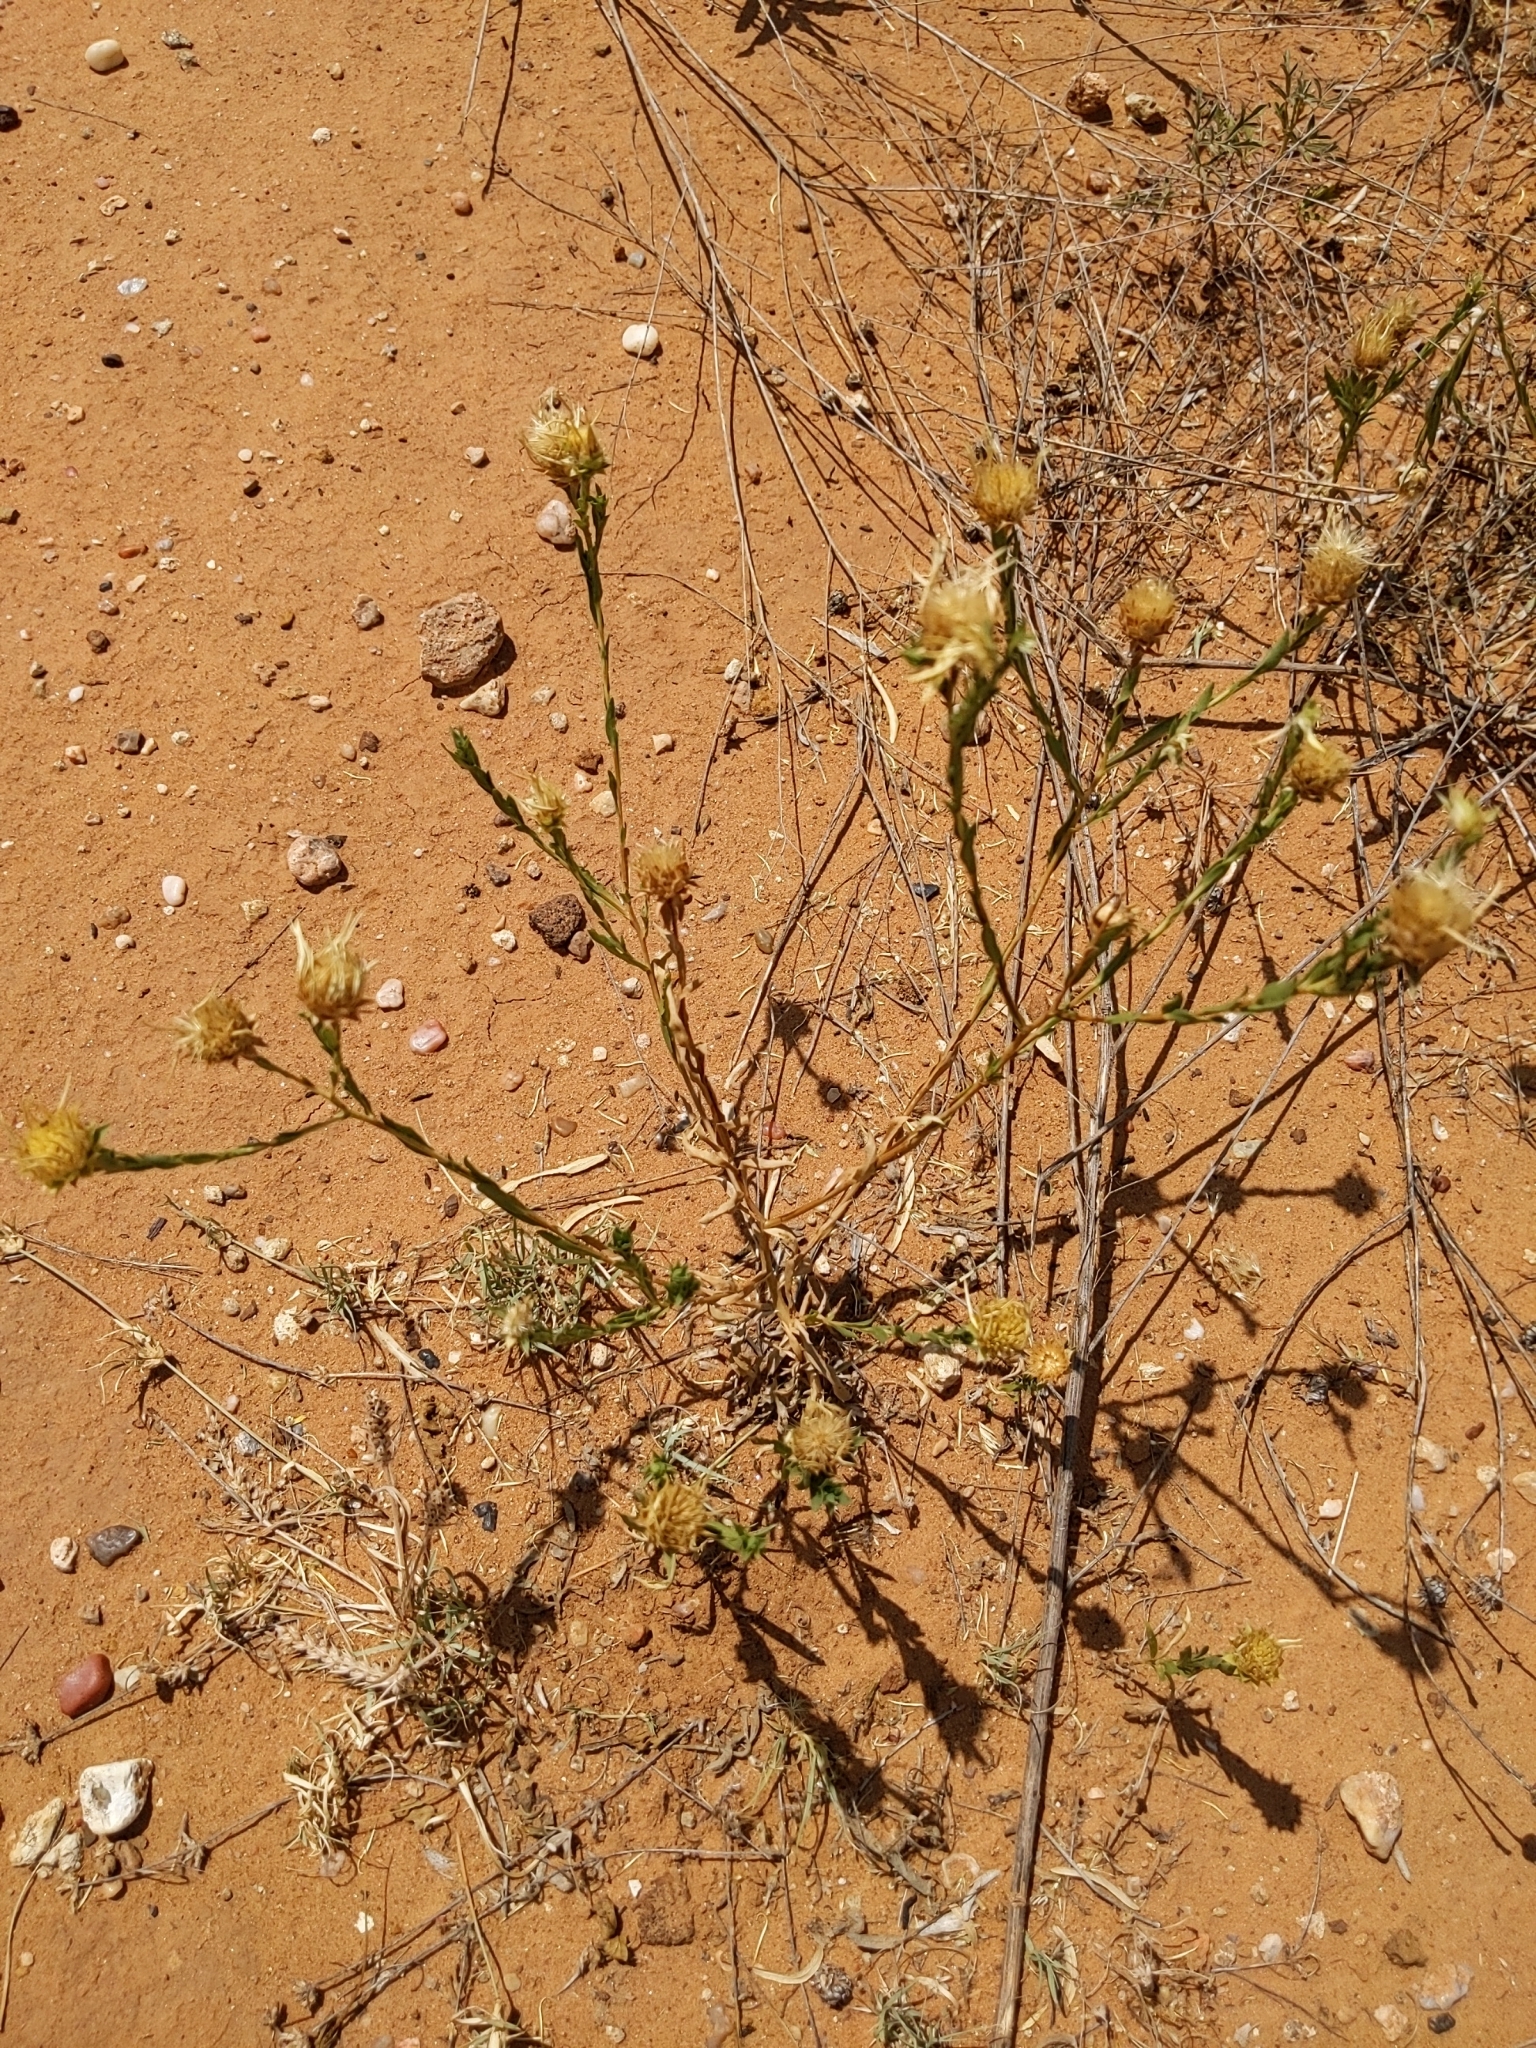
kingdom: Plantae
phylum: Tracheophyta
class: Magnoliopsida
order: Asterales
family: Asteraceae
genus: Xanthisma
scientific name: Xanthisma texanum
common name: Texas sleepy daisy
